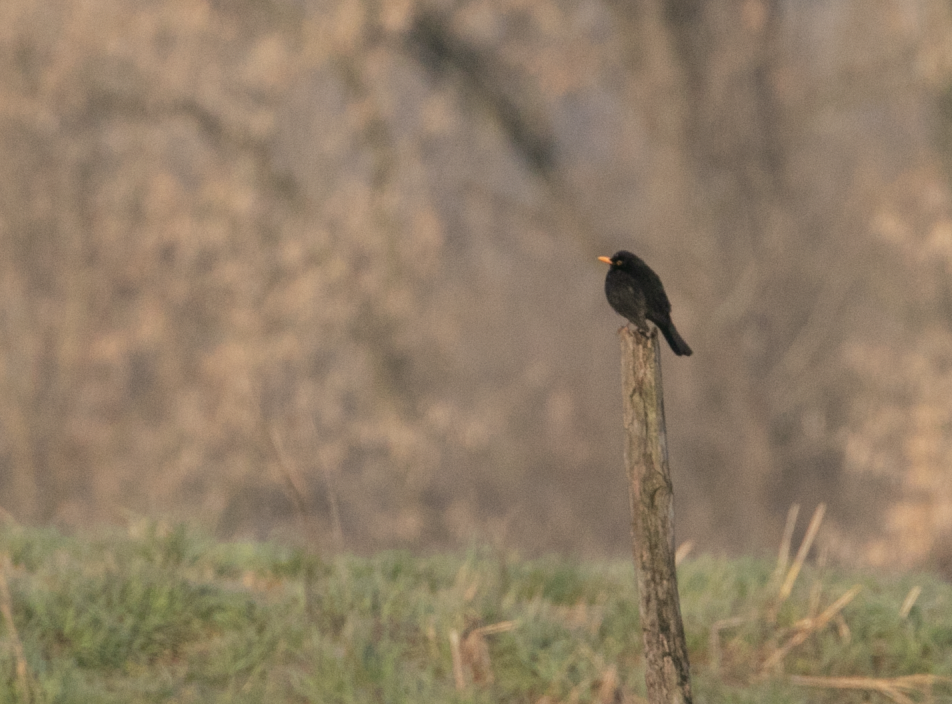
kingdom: Animalia
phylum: Chordata
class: Aves
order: Passeriformes
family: Turdidae
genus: Turdus
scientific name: Turdus merula
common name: Common blackbird
